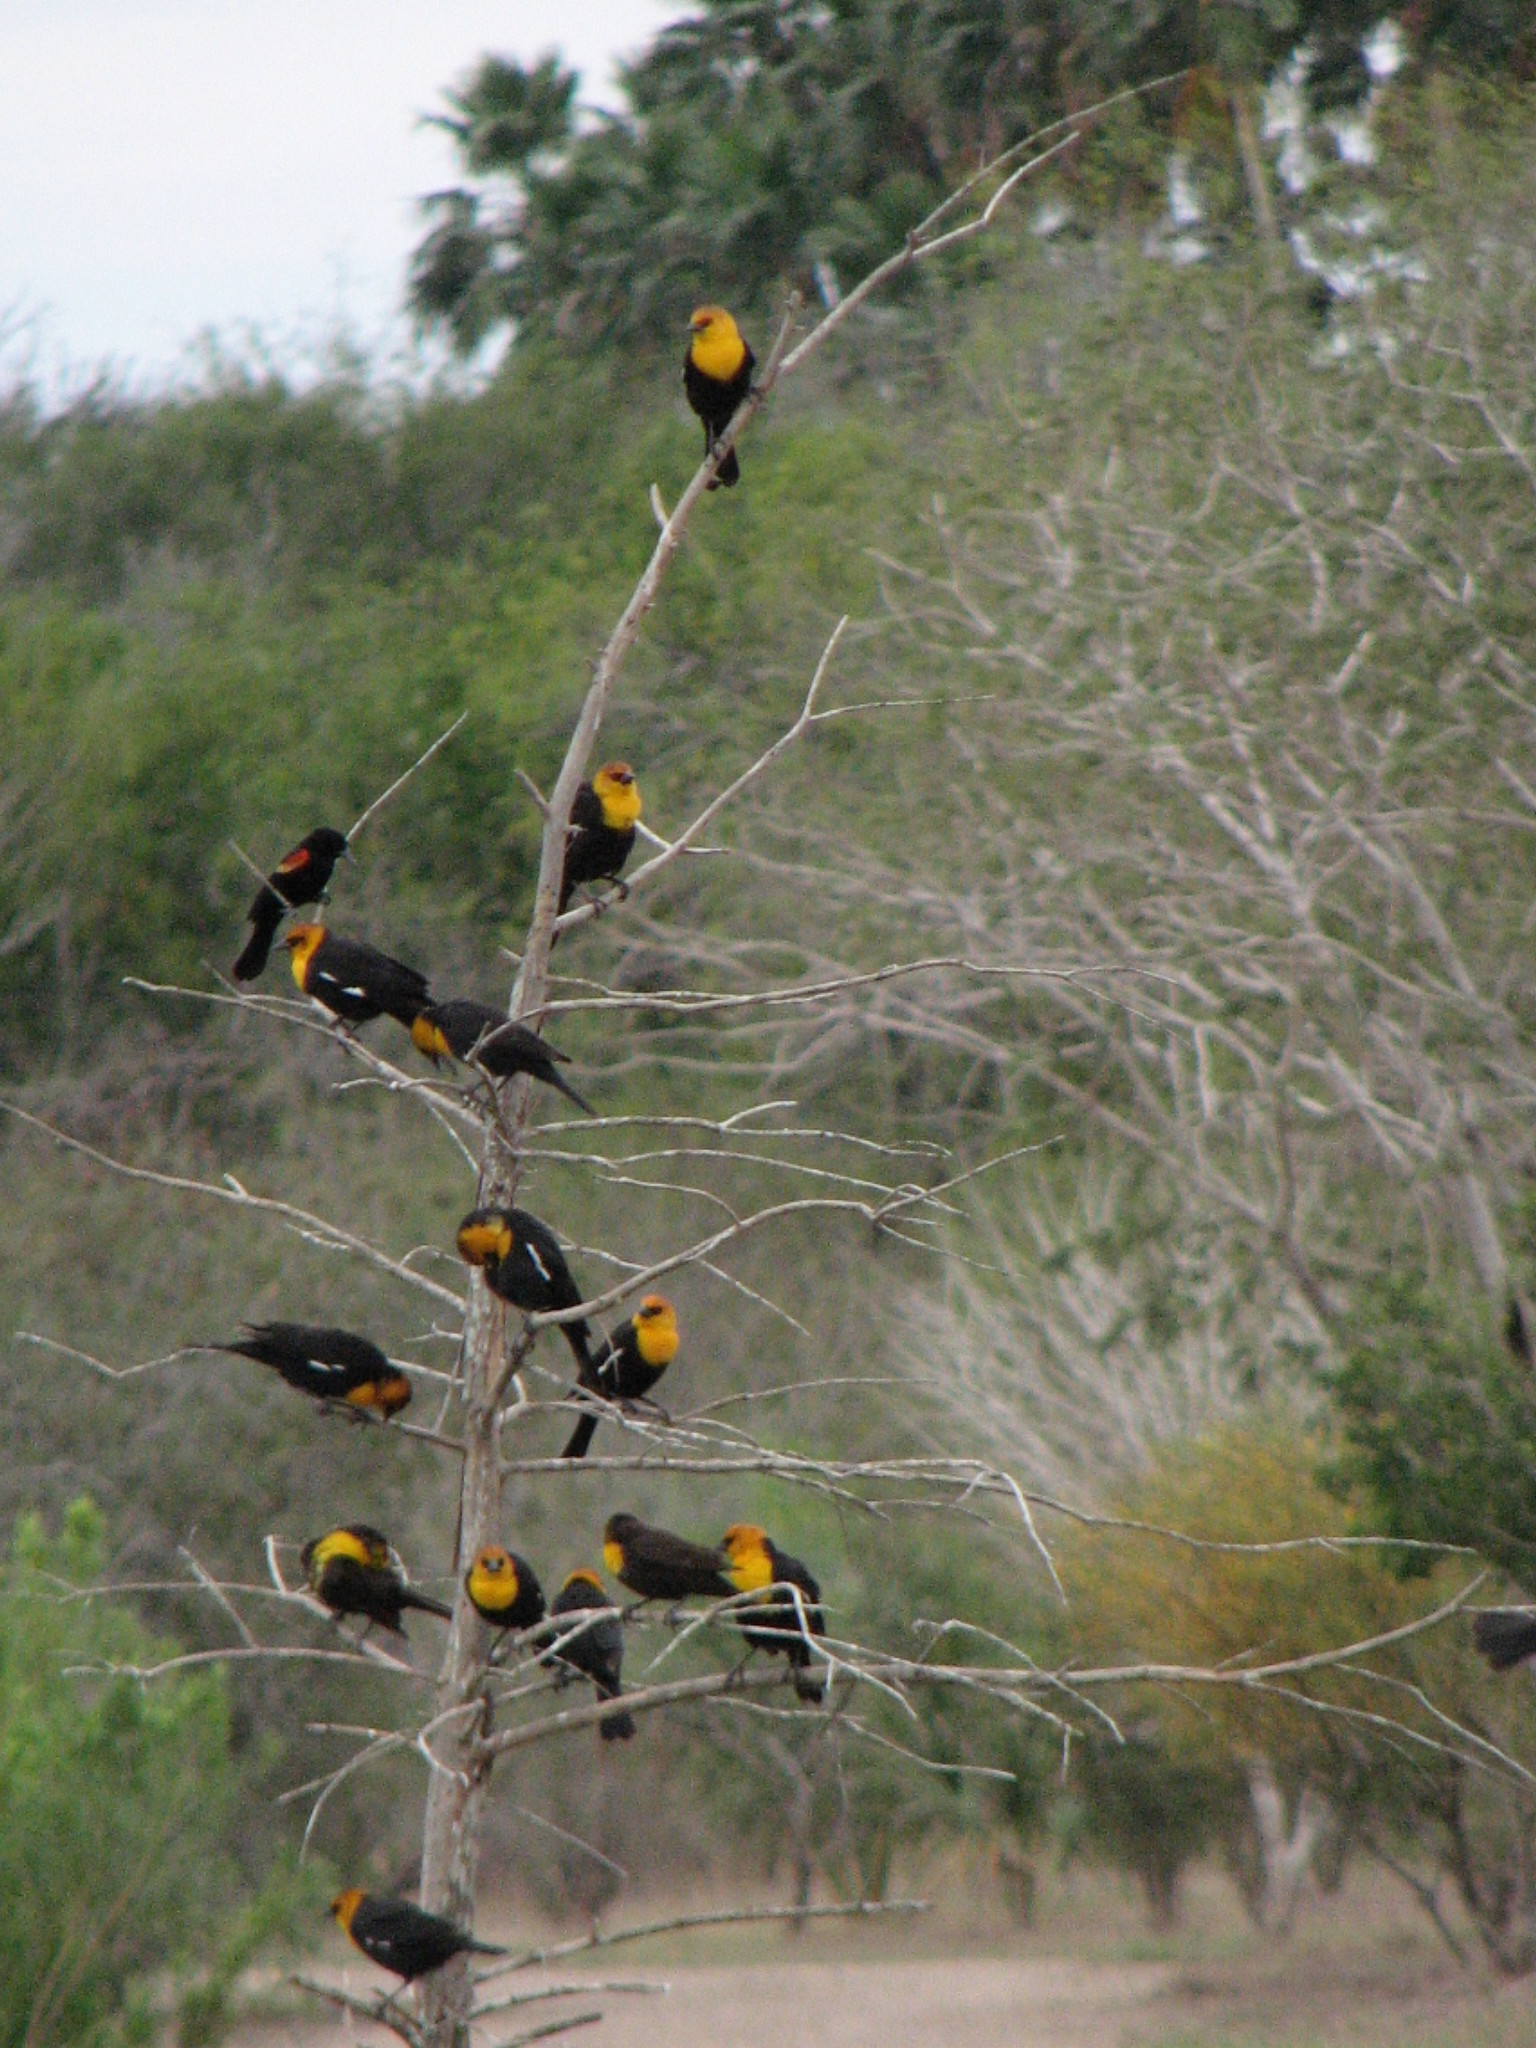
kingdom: Animalia
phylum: Chordata
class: Aves
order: Passeriformes
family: Icteridae
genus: Xanthocephalus
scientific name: Xanthocephalus xanthocephalus
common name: Yellow-headed blackbird
